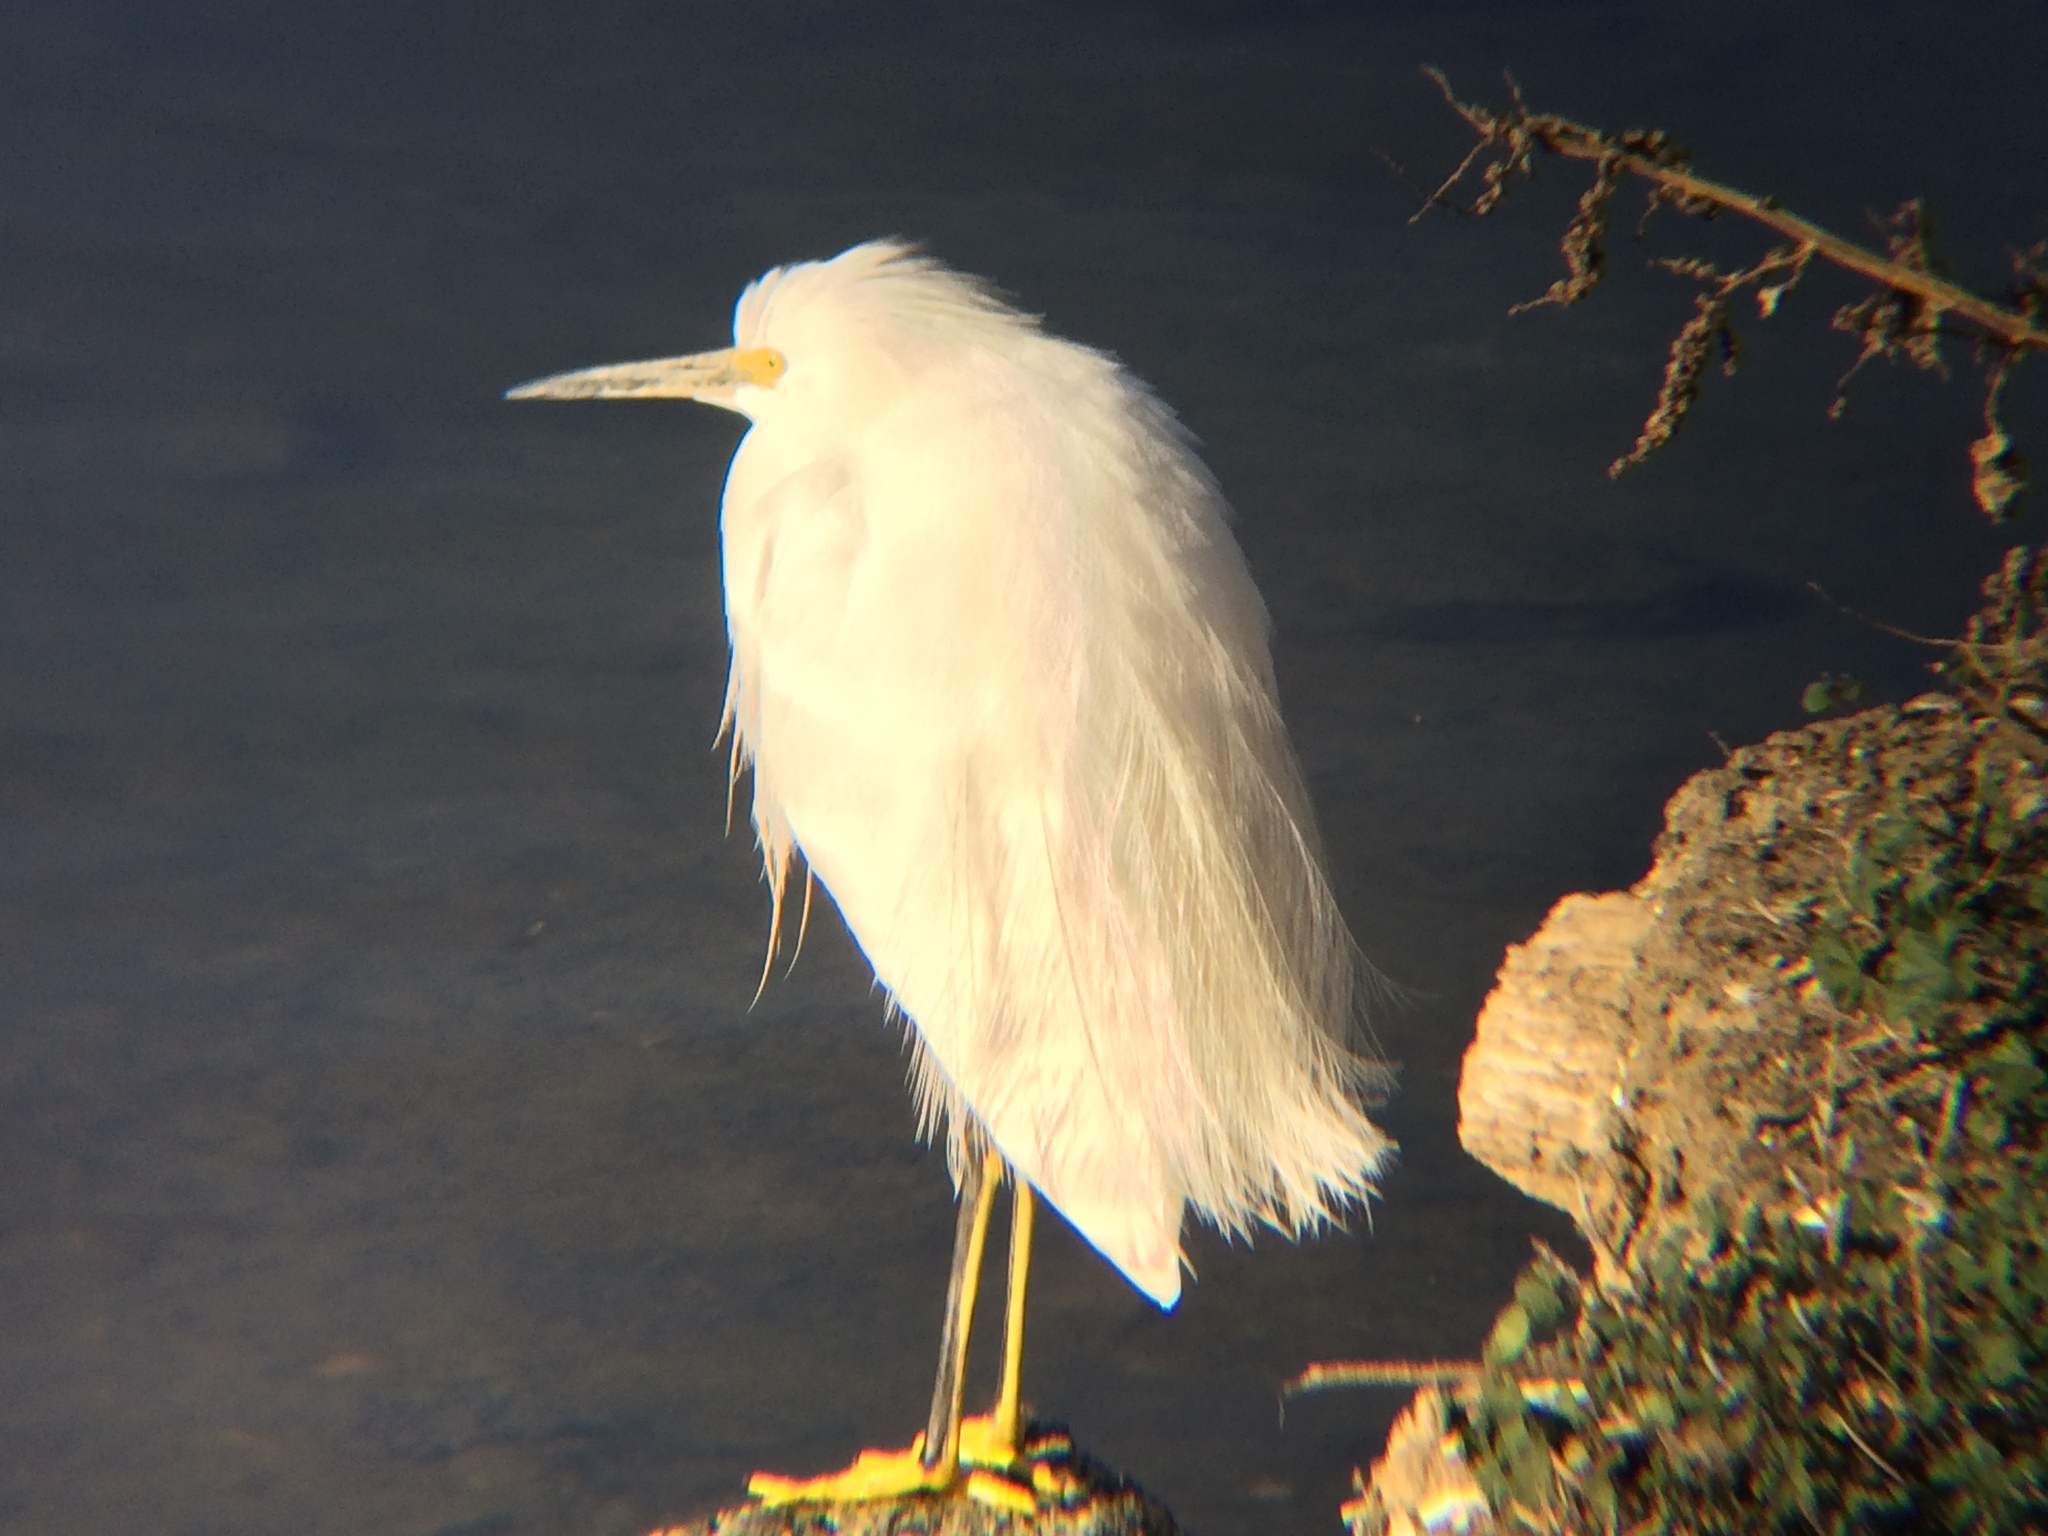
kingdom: Animalia
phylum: Chordata
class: Aves
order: Pelecaniformes
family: Ardeidae
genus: Egretta
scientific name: Egretta thula
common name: Snowy egret
